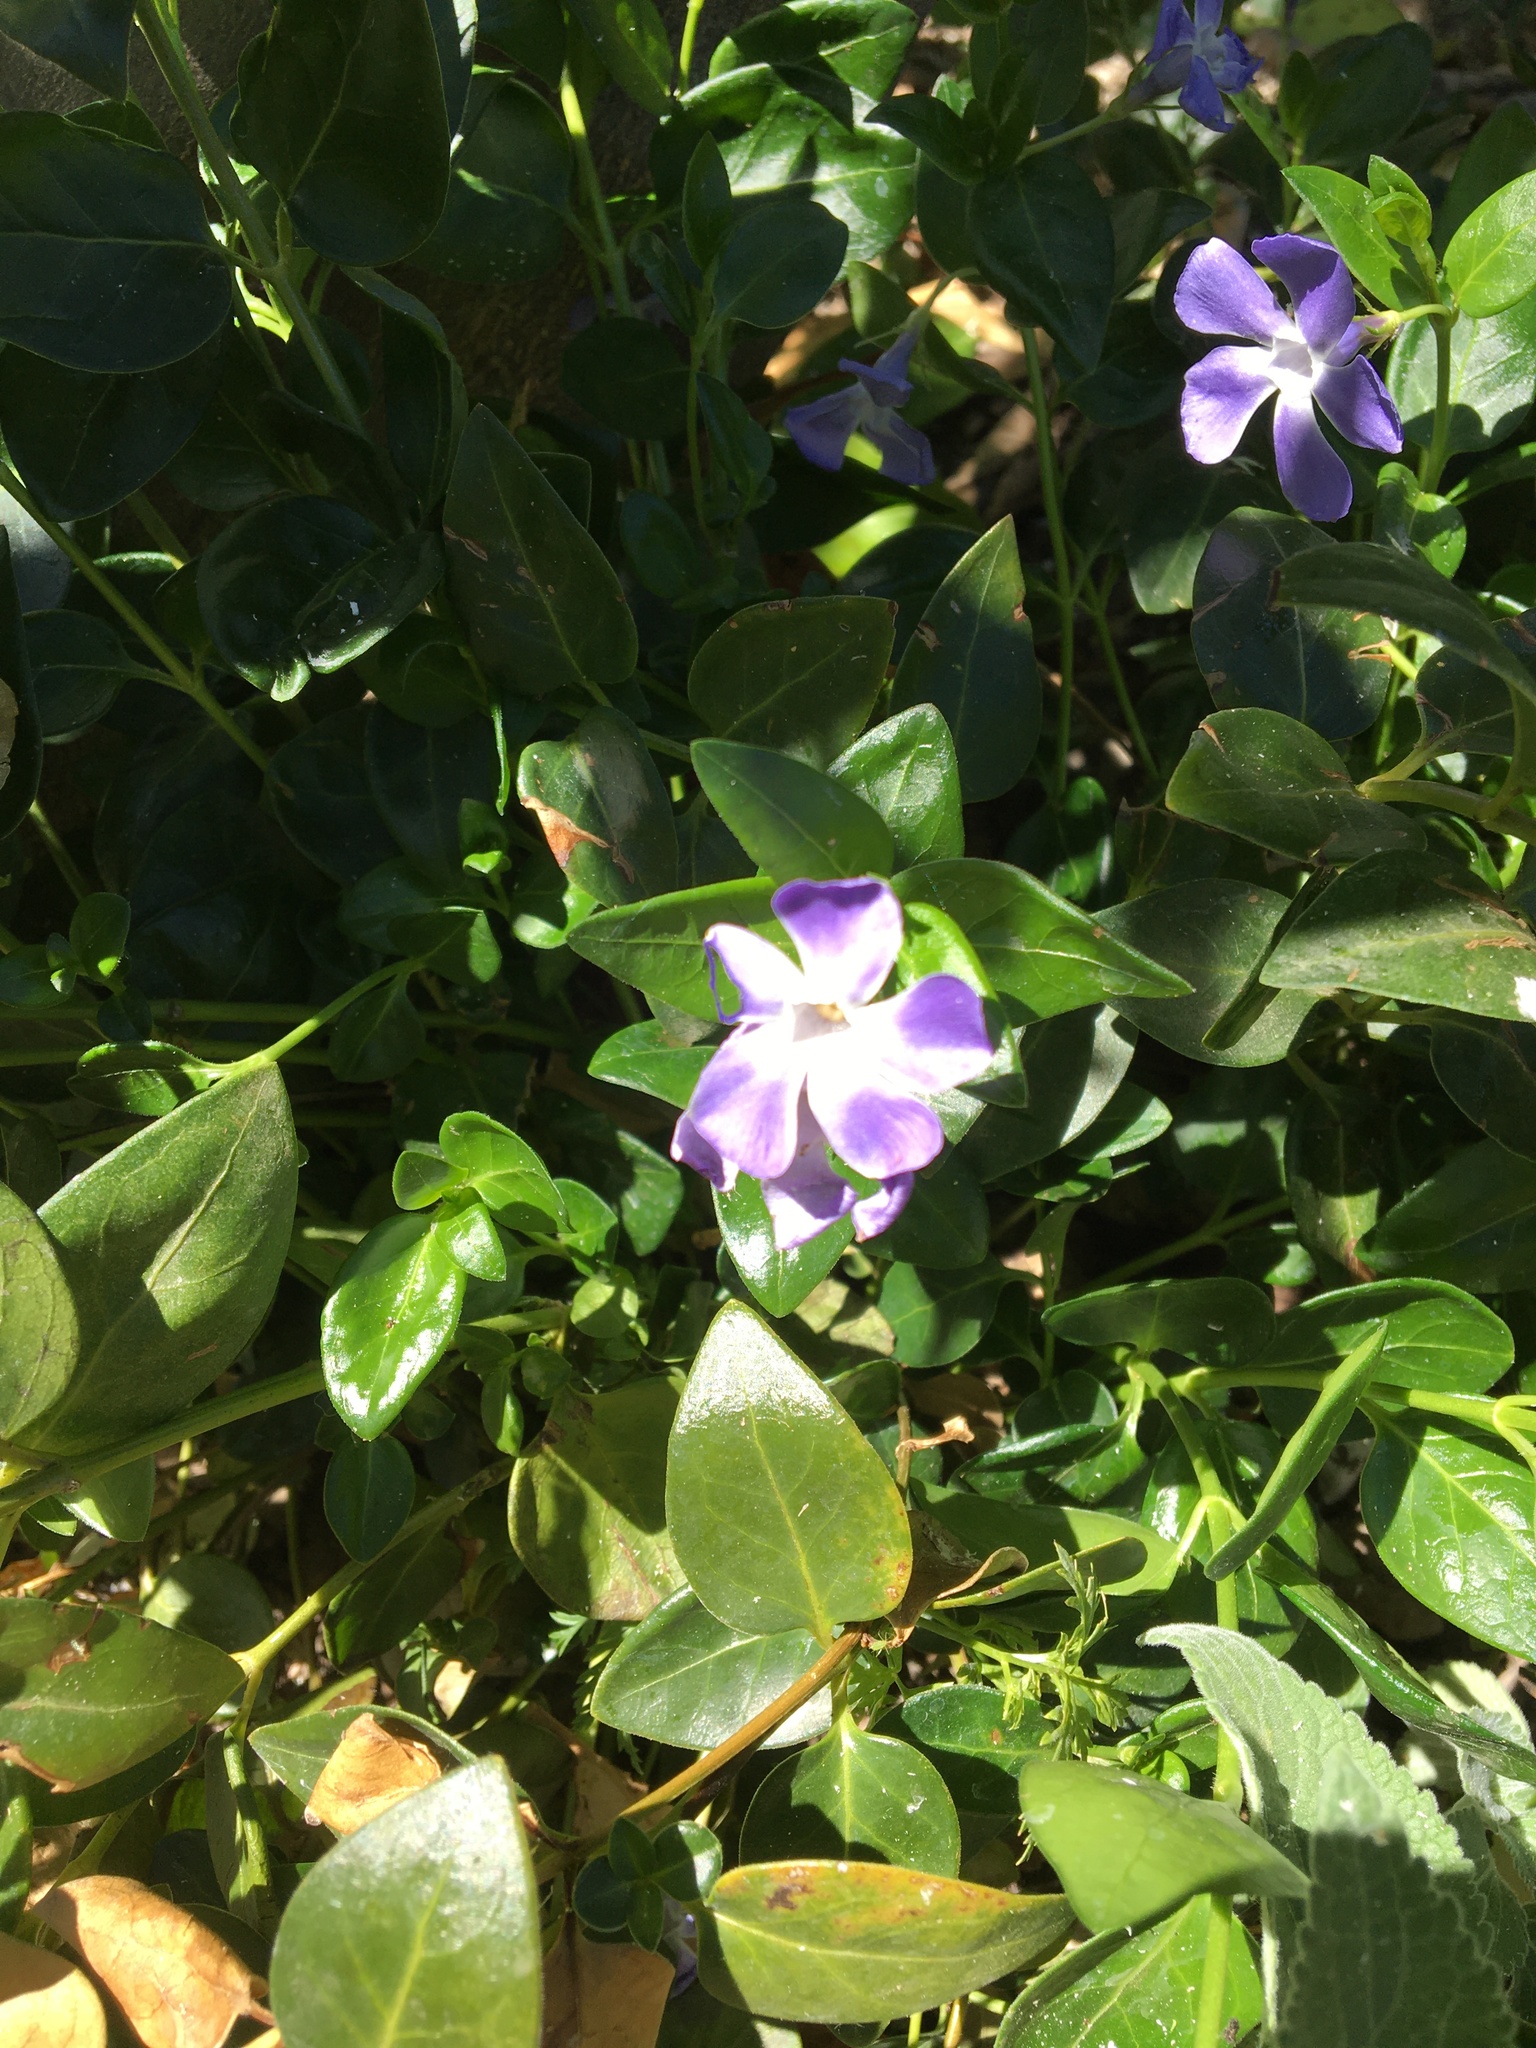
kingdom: Plantae
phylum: Tracheophyta
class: Magnoliopsida
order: Gentianales
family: Apocynaceae
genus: Vinca
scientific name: Vinca major
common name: Greater periwinkle
